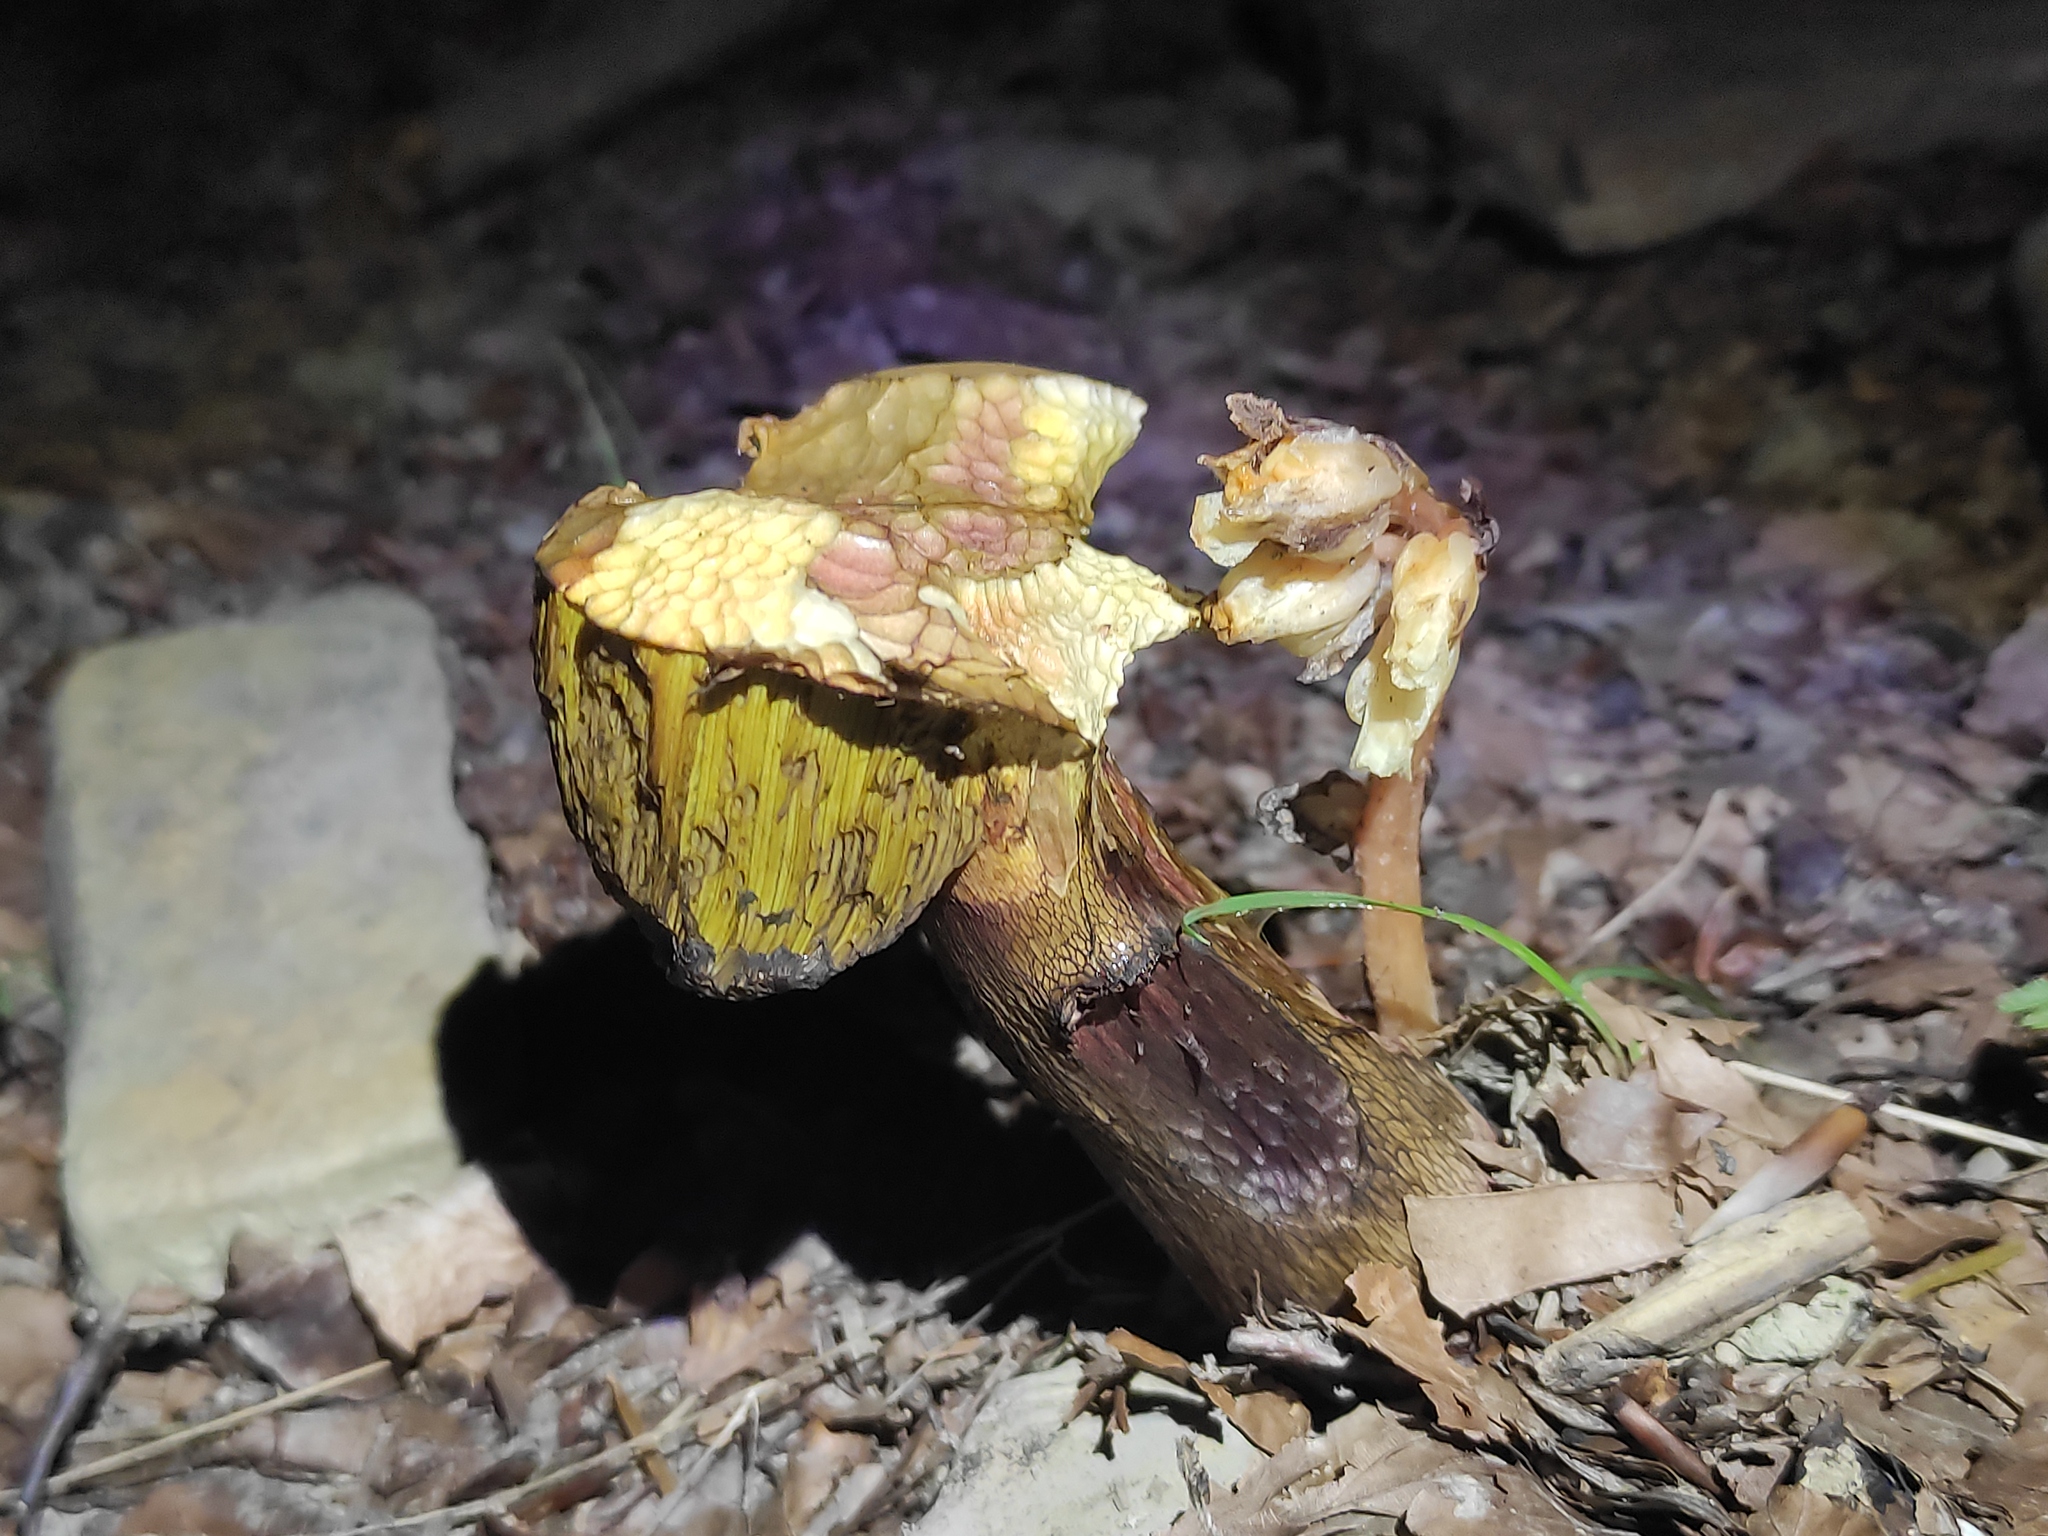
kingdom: Plantae
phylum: Tracheophyta
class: Magnoliopsida
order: Ericales
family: Ericaceae
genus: Hypopitys
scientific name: Hypopitys monotropa
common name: Yellow bird's-nest
